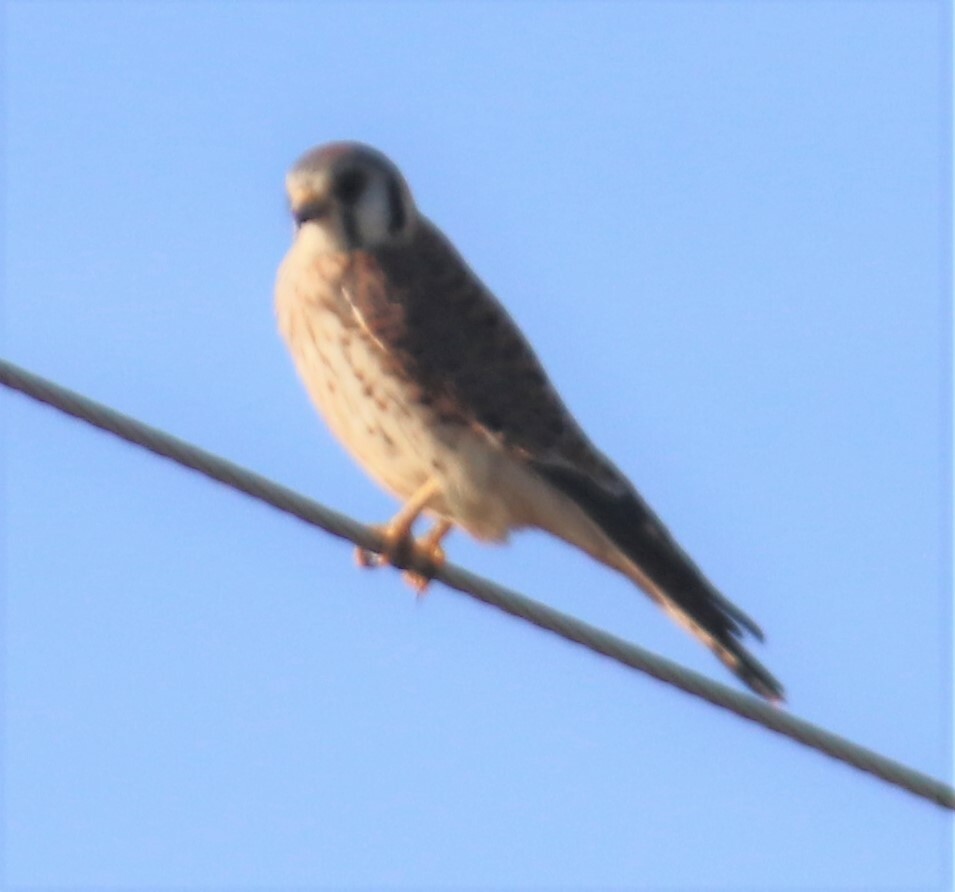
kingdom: Animalia
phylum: Chordata
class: Aves
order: Falconiformes
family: Falconidae
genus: Falco
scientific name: Falco sparverius
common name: American kestrel
